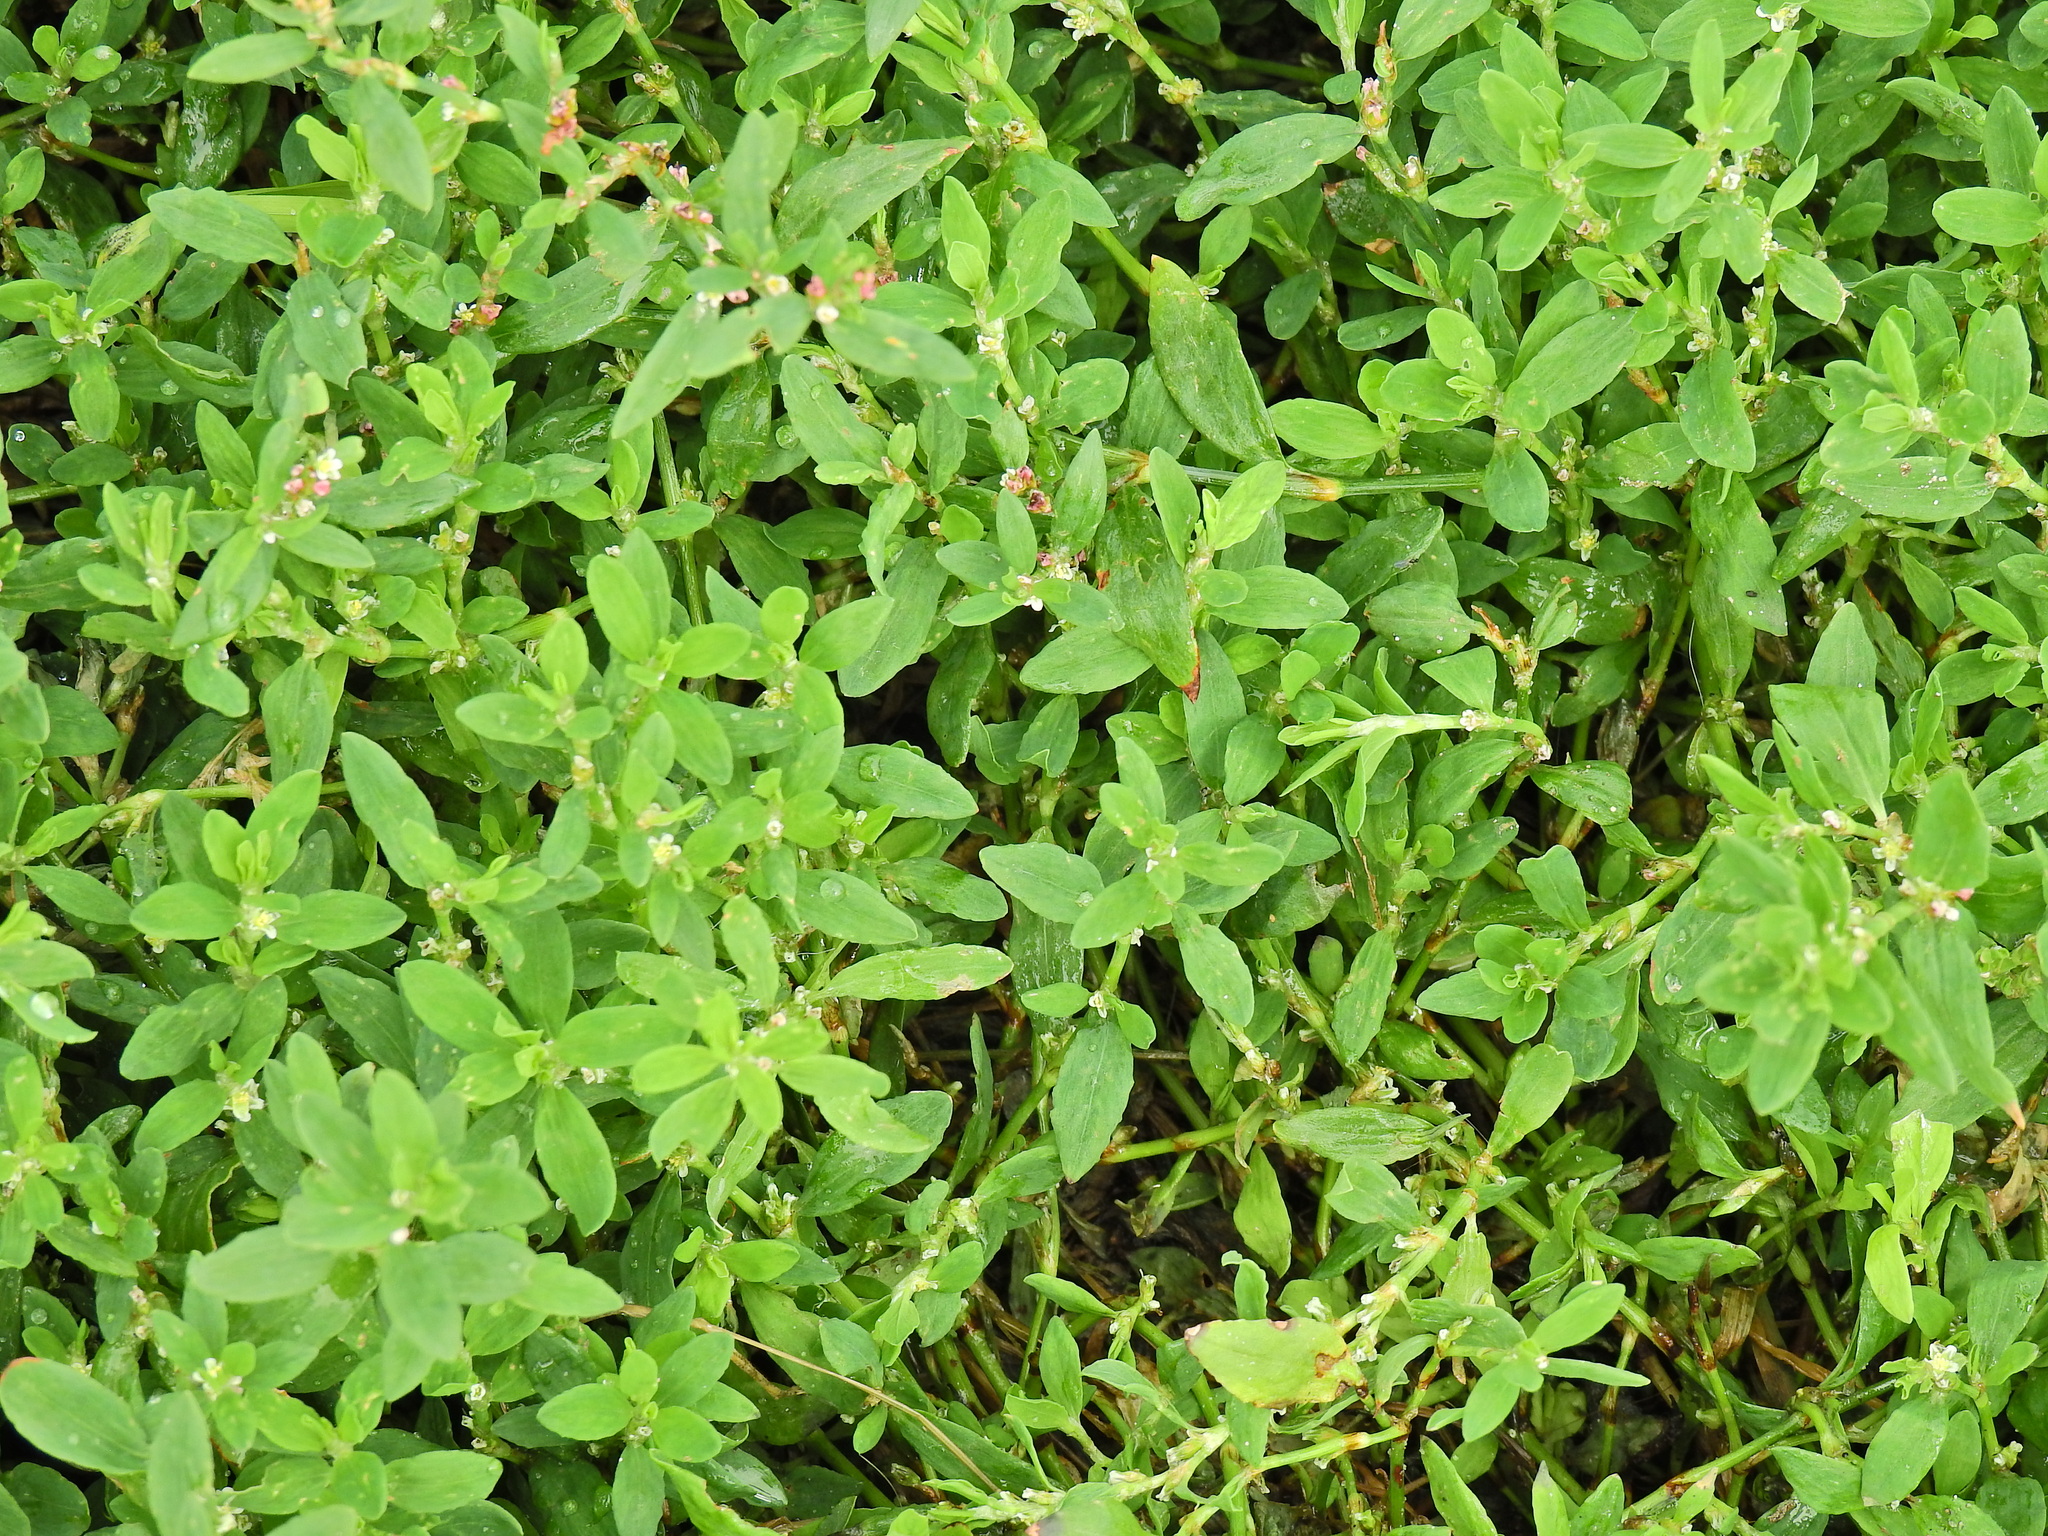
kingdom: Plantae
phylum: Tracheophyta
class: Magnoliopsida
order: Caryophyllales
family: Polygonaceae
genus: Polygonum
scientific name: Polygonum aviculare
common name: Prostrate knotweed
